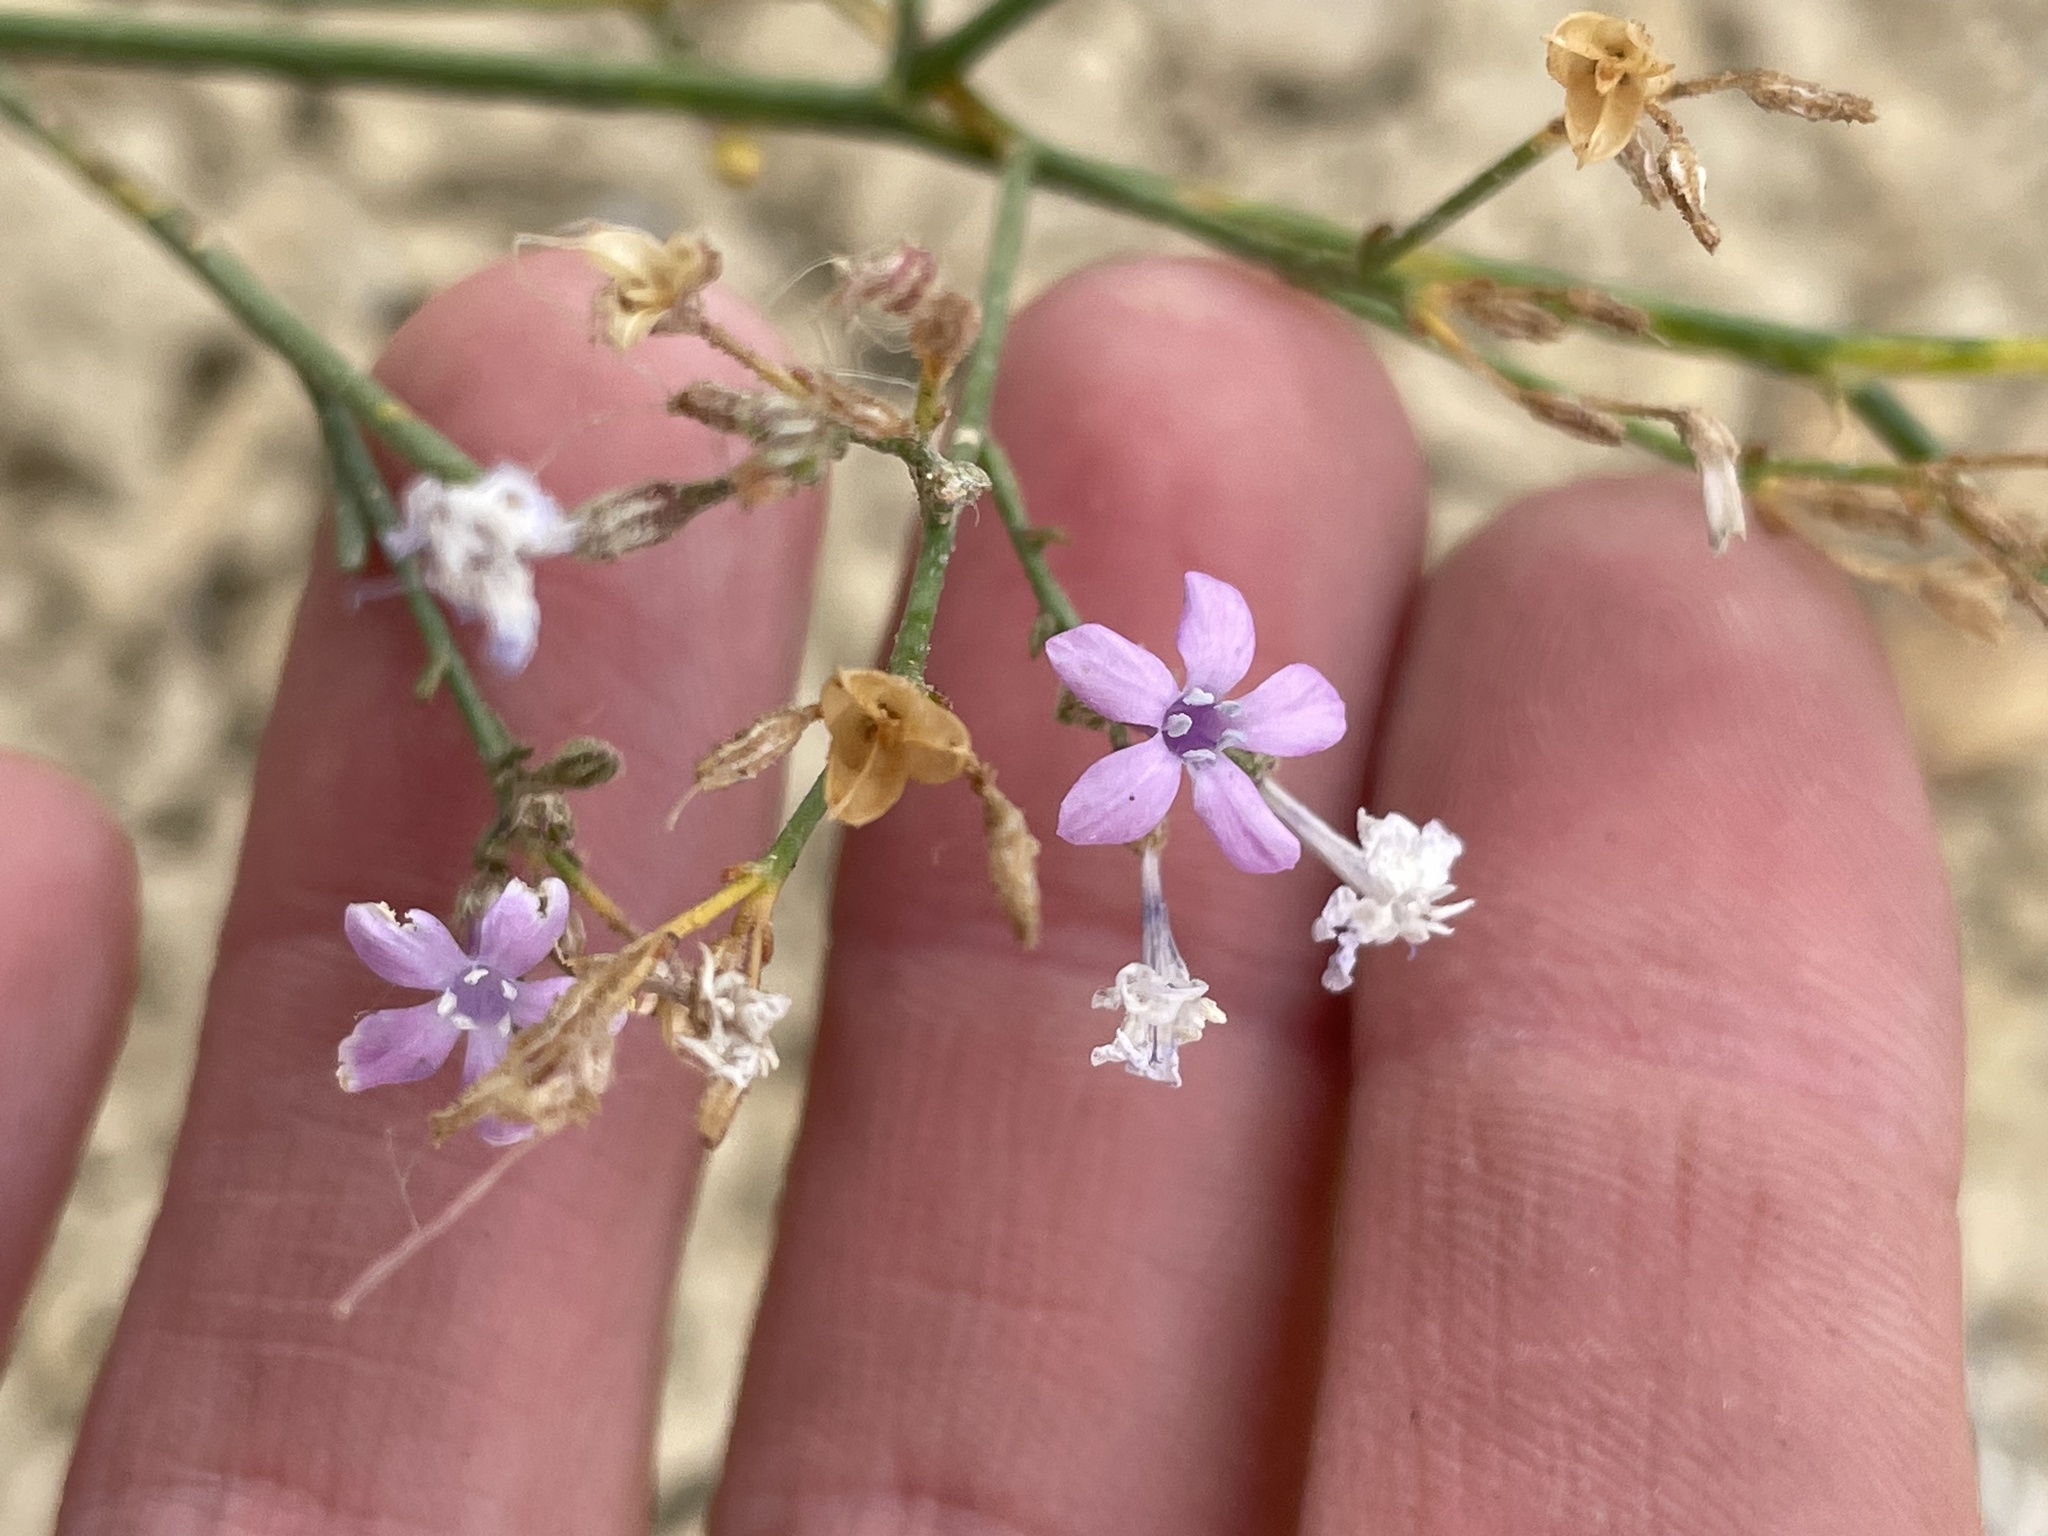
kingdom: Plantae
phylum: Tracheophyta
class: Magnoliopsida
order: Ericales
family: Polemoniaceae
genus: Aliciella
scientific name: Aliciella haydenii
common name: San juan gilia
